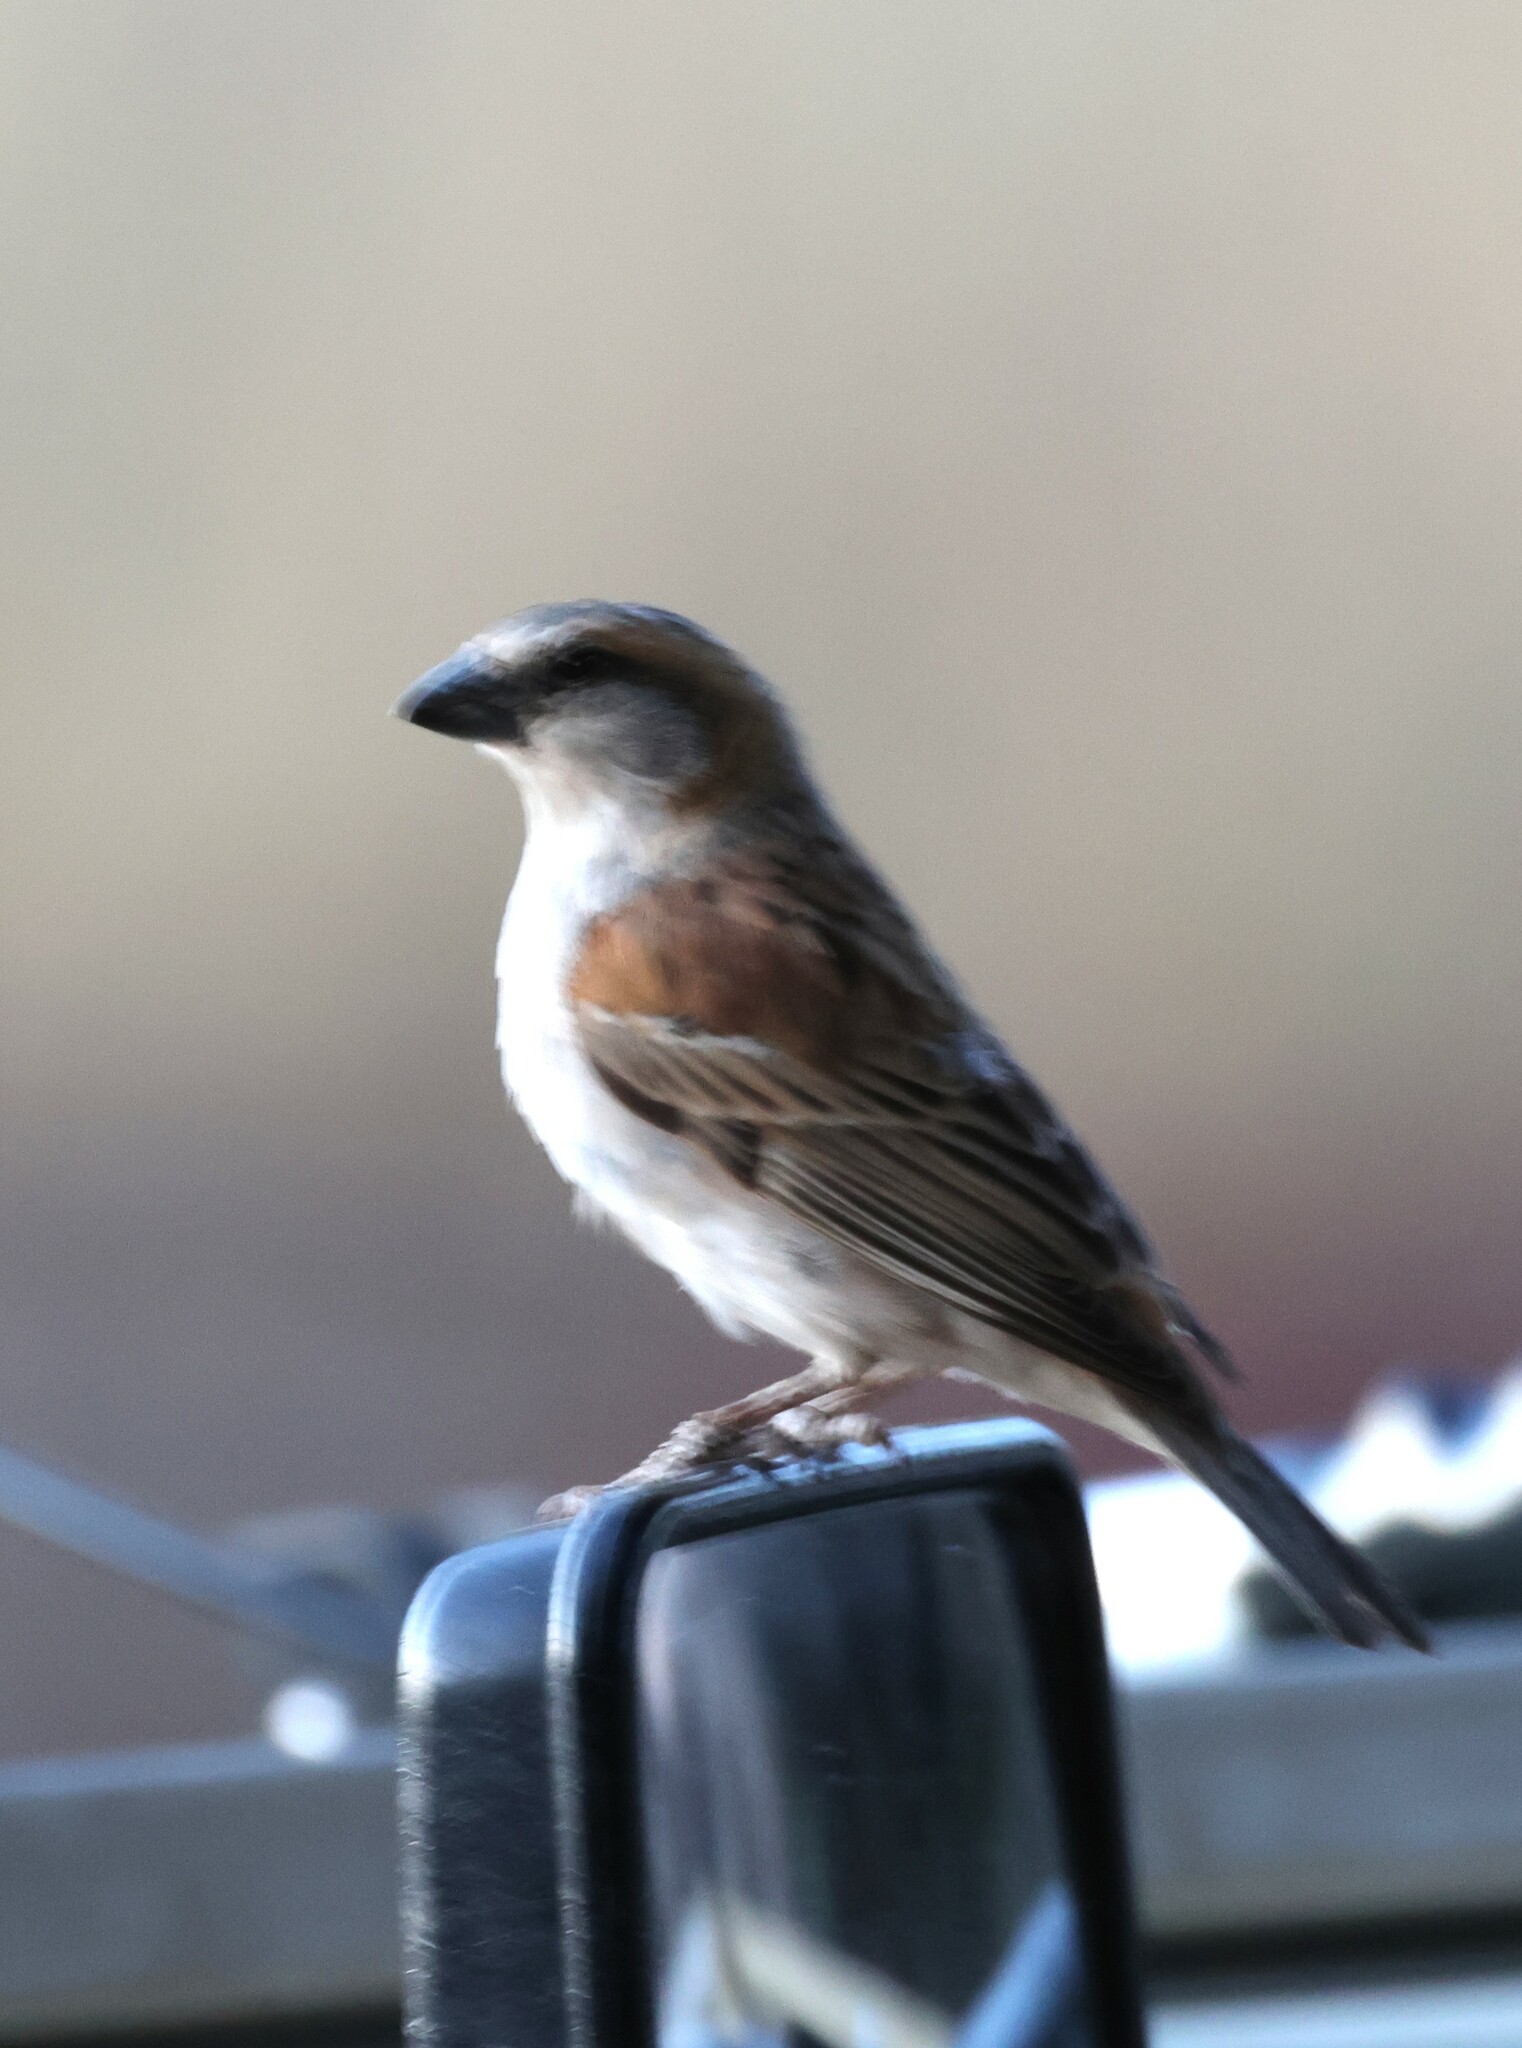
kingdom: Animalia
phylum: Chordata
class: Aves
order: Passeriformes
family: Passeridae
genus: Passer
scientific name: Passer motitensis
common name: Great sparrow
